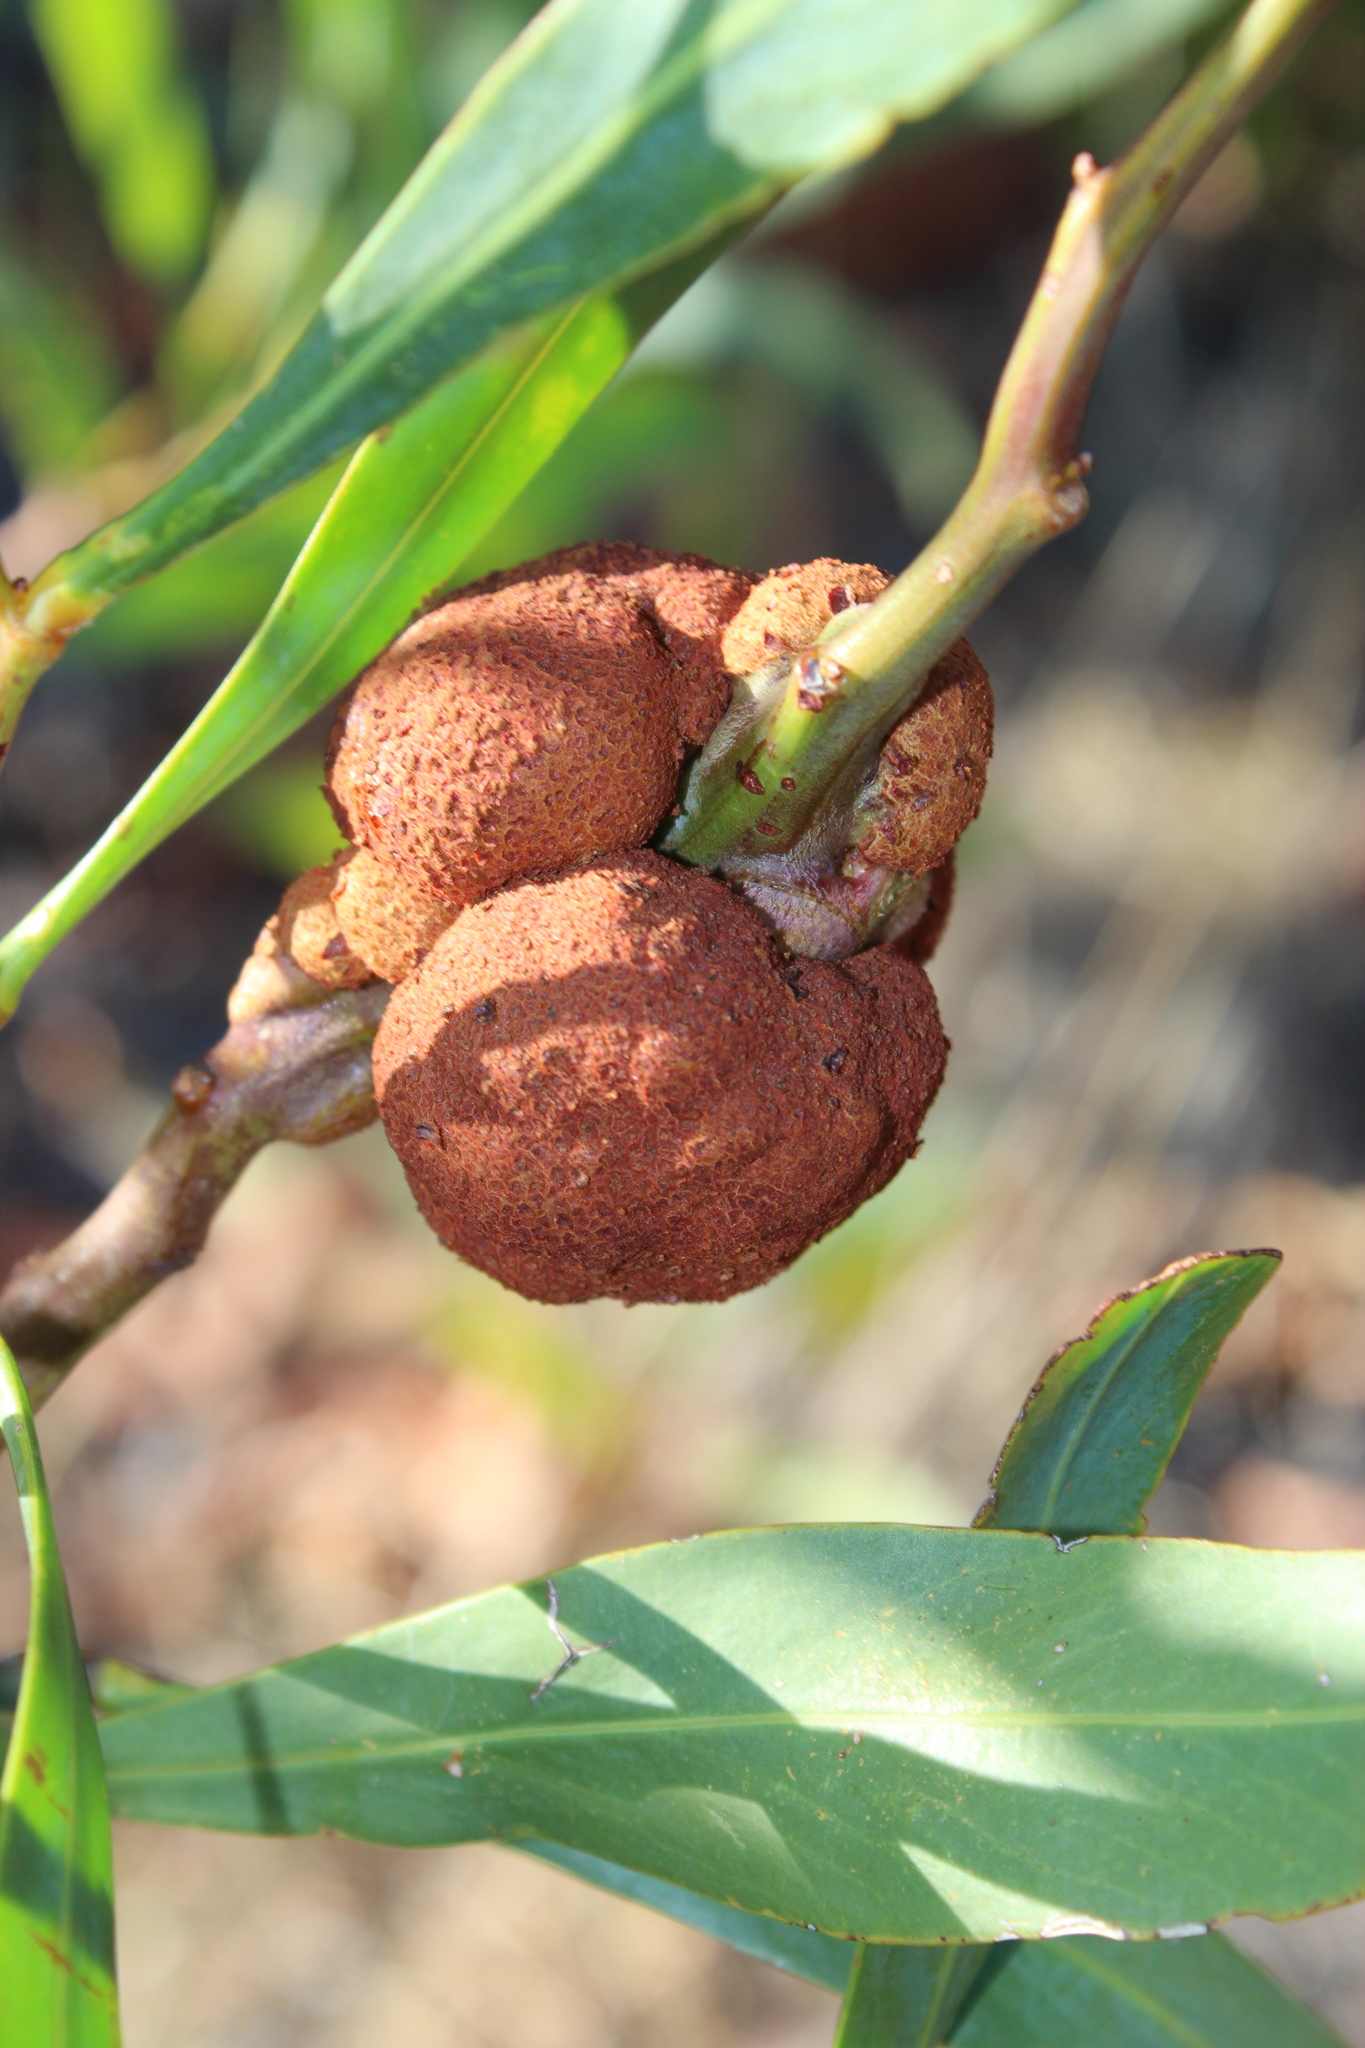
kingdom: Fungi
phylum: Basidiomycota
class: Pucciniomycetes
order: Pucciniales
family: Uromycladiaceae
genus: Uromycladium
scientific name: Uromycladium morrisii
